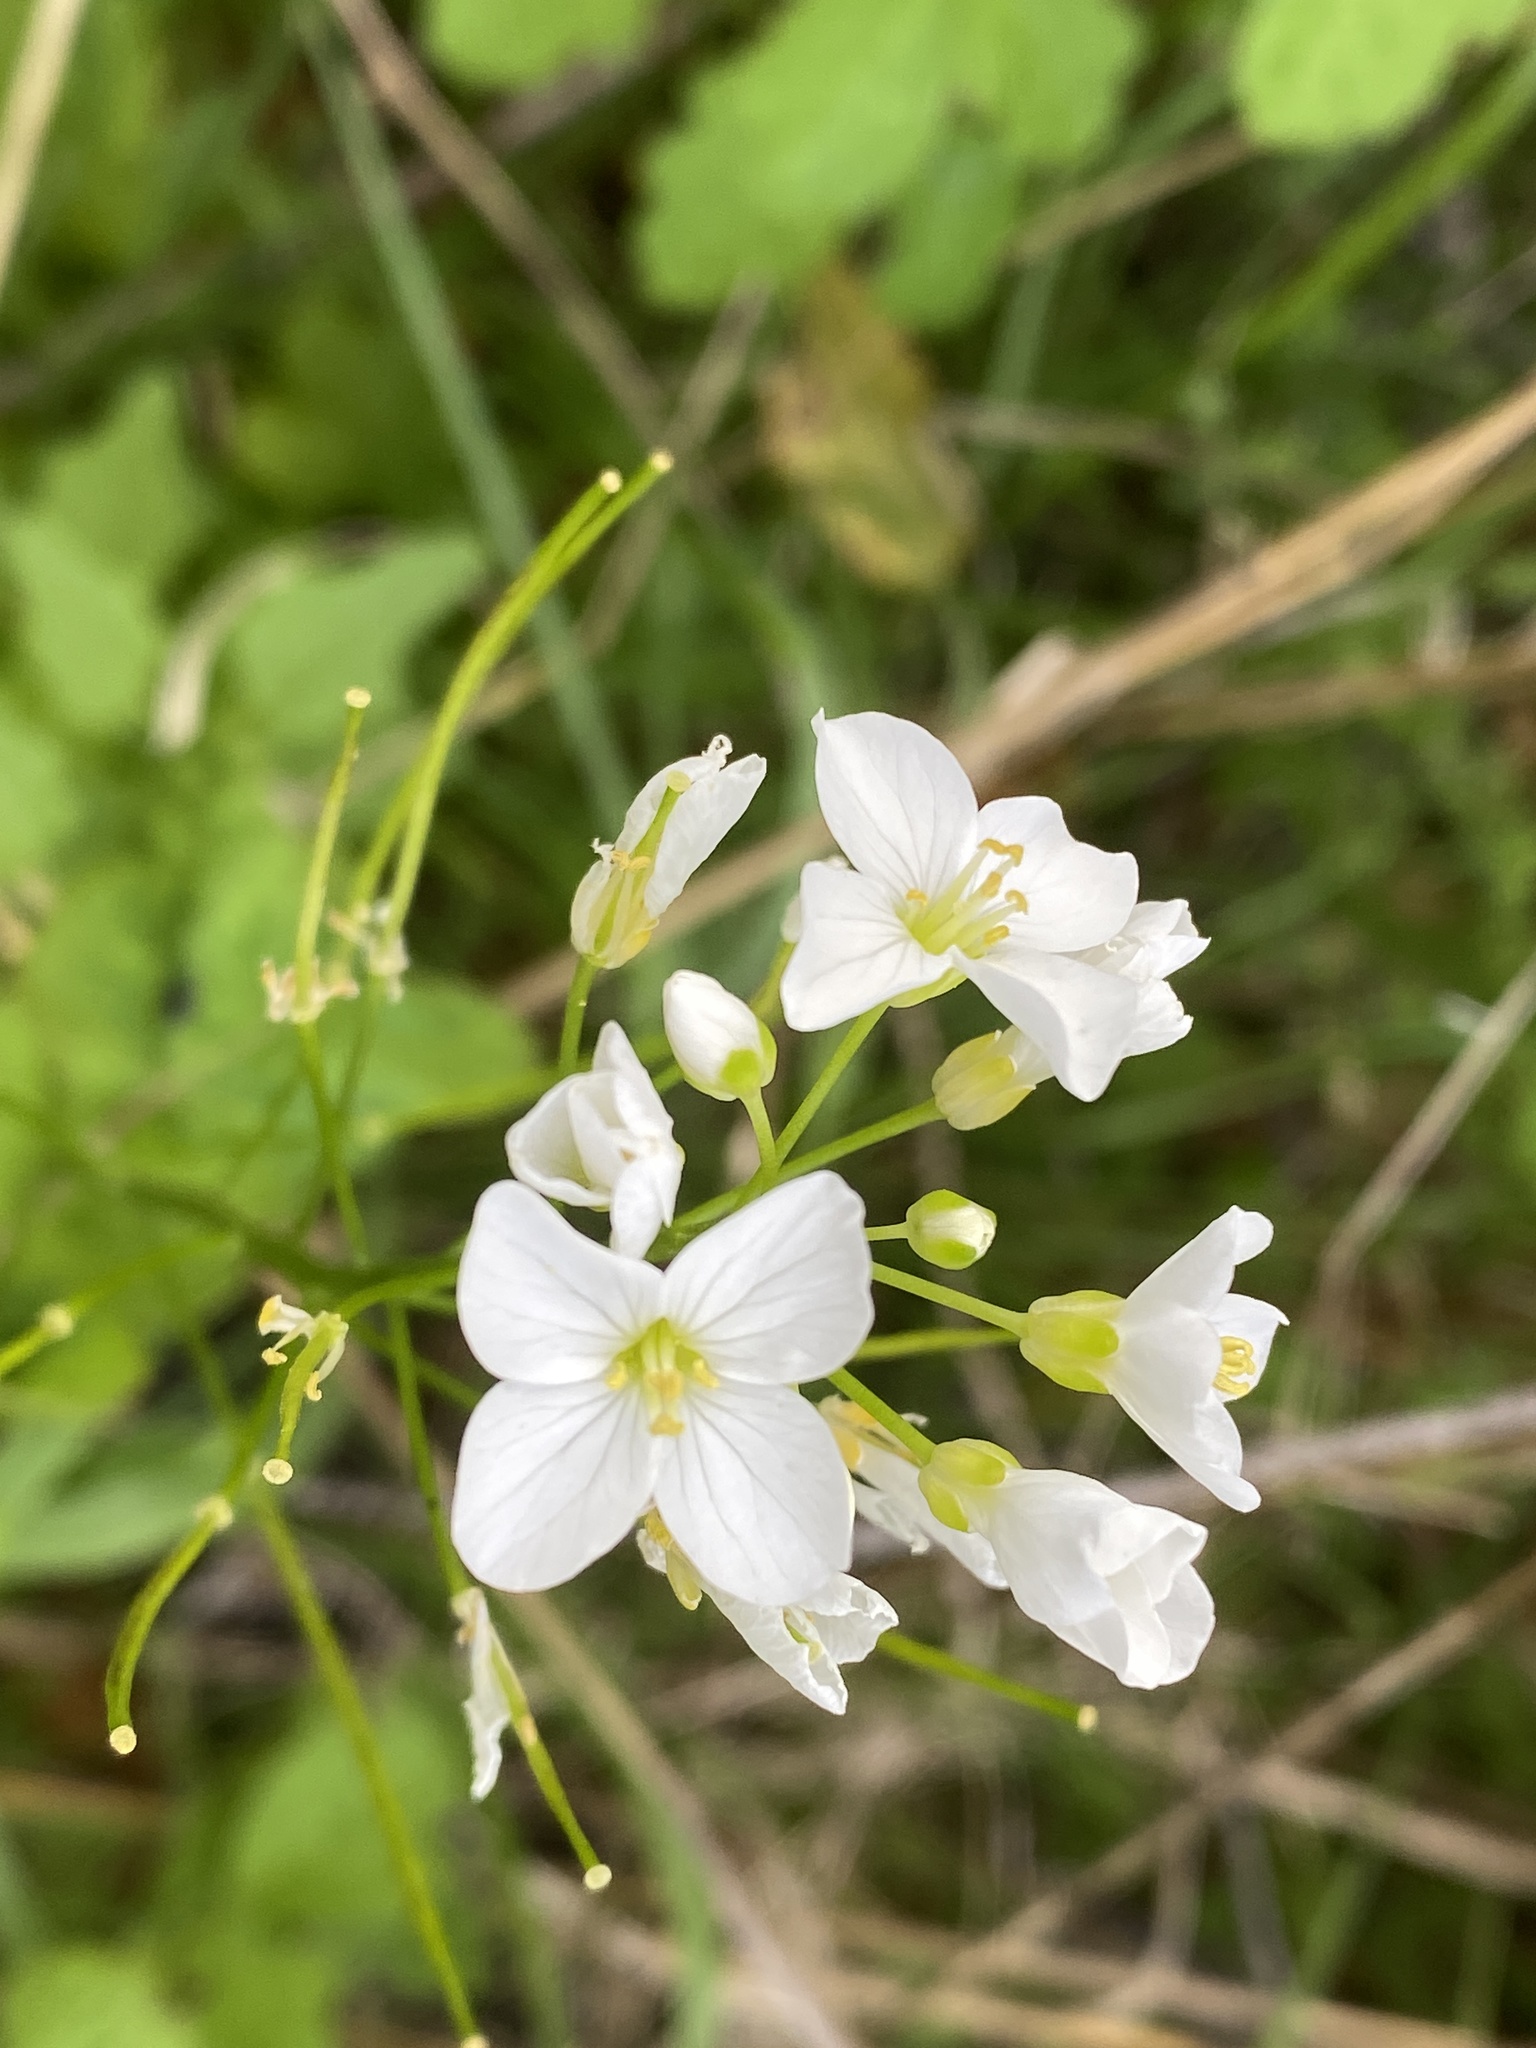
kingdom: Plantae
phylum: Tracheophyta
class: Magnoliopsida
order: Brassicales
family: Brassicaceae
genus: Cardamine
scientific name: Cardamine californica
